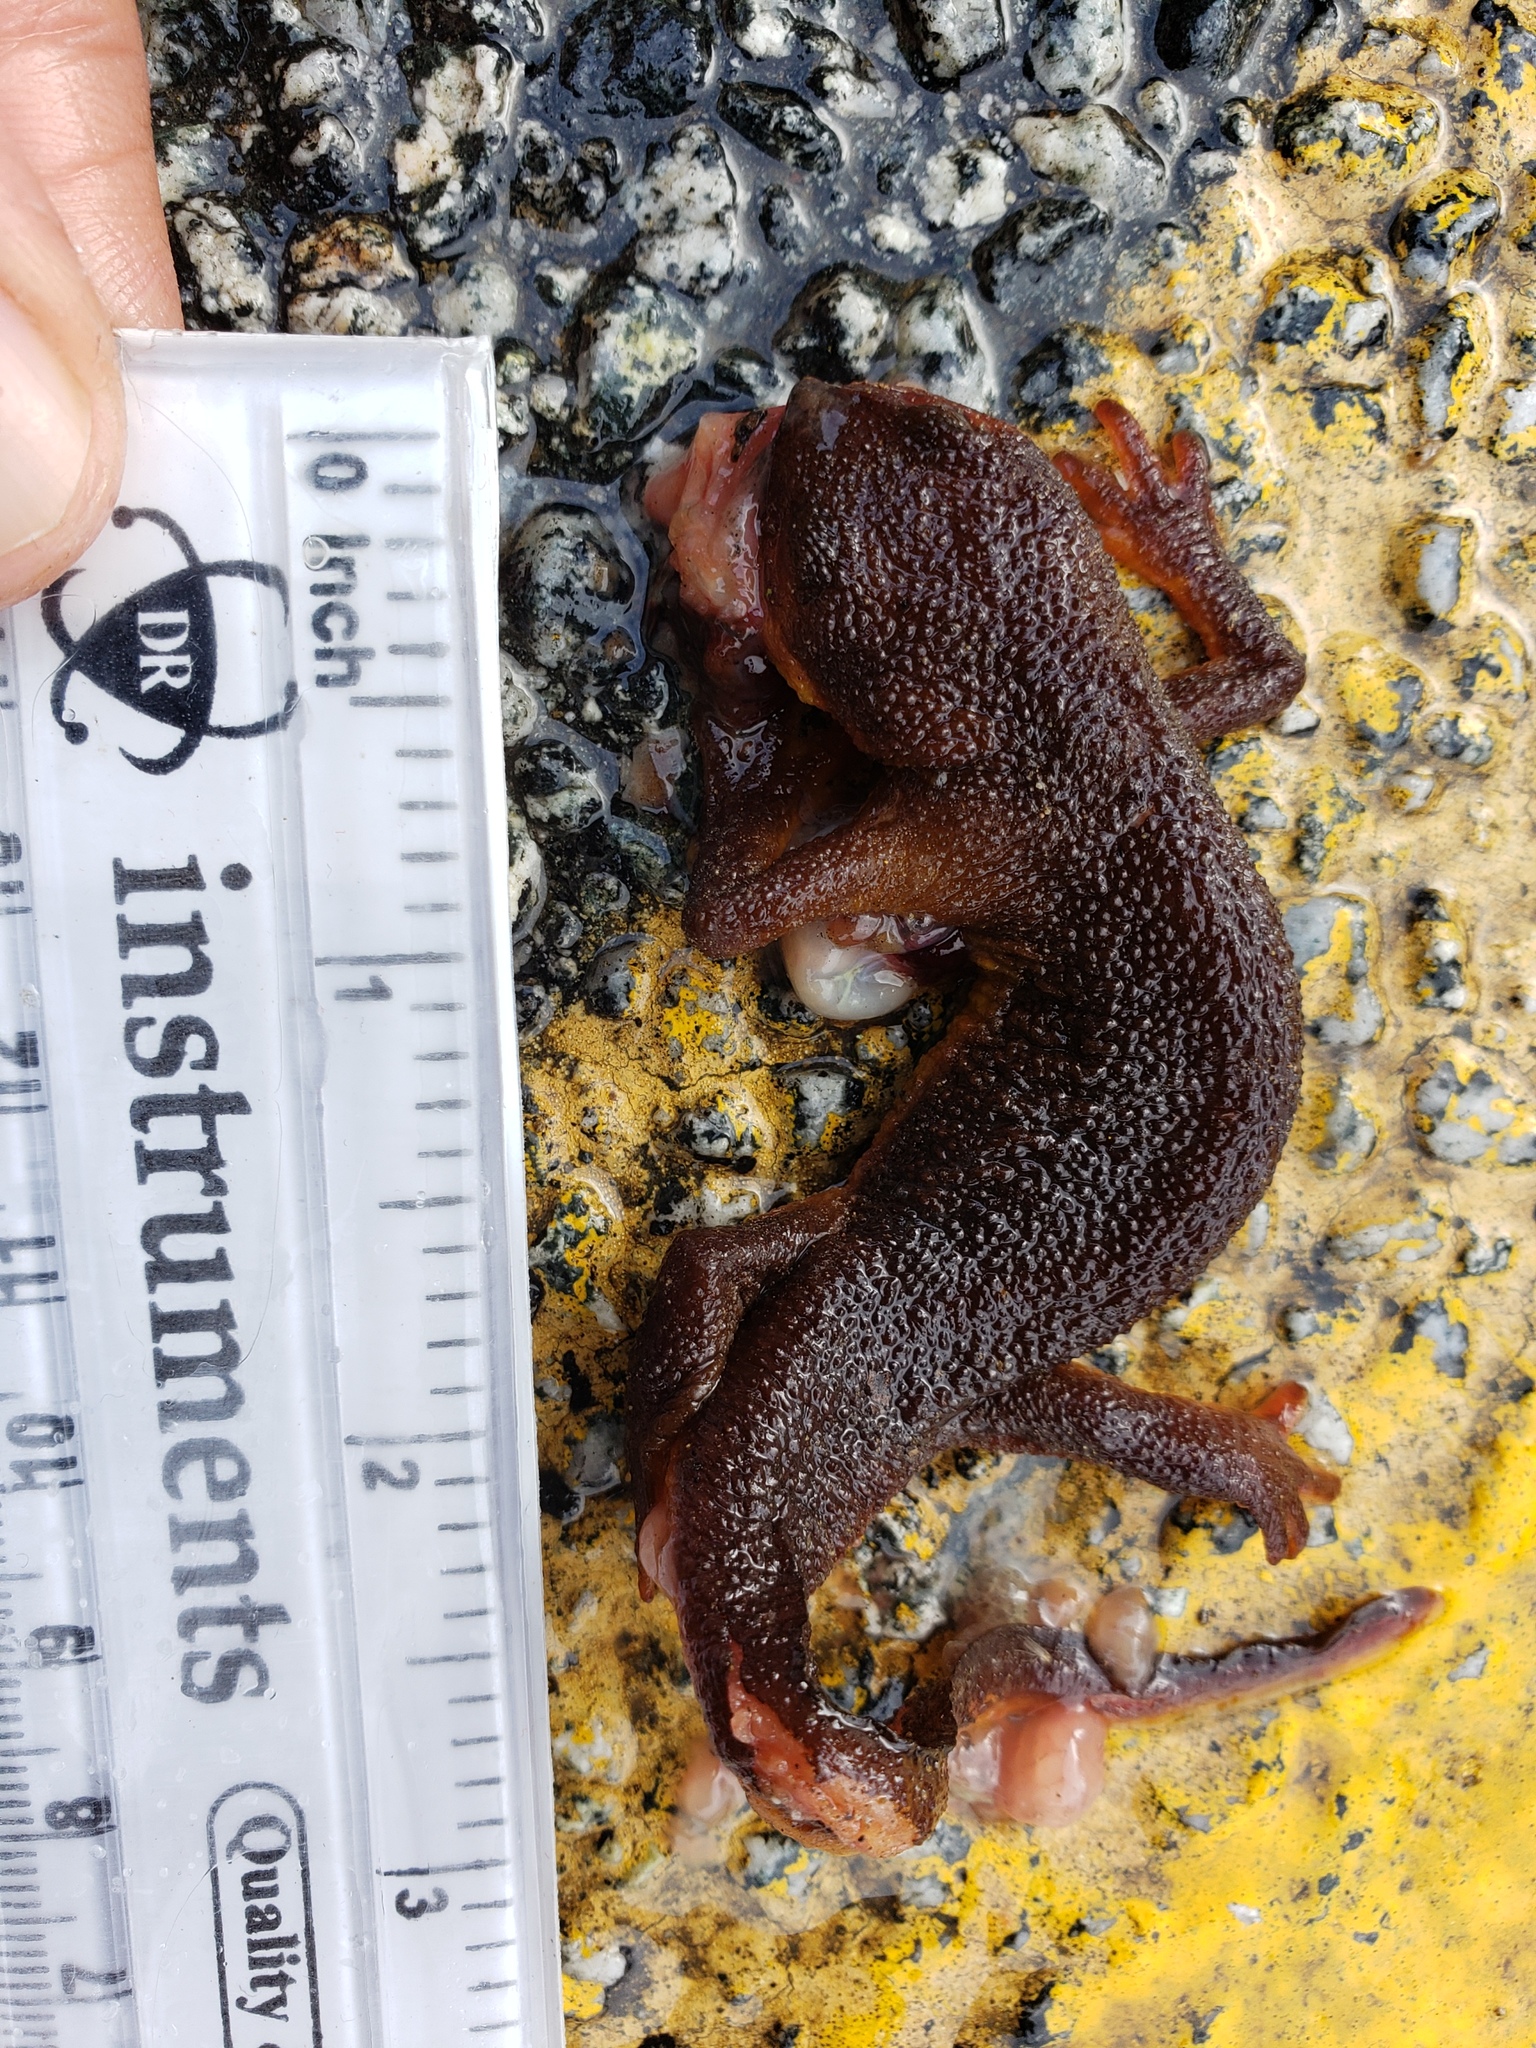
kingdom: Animalia
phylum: Chordata
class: Amphibia
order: Caudata
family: Salamandridae
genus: Taricha
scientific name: Taricha
